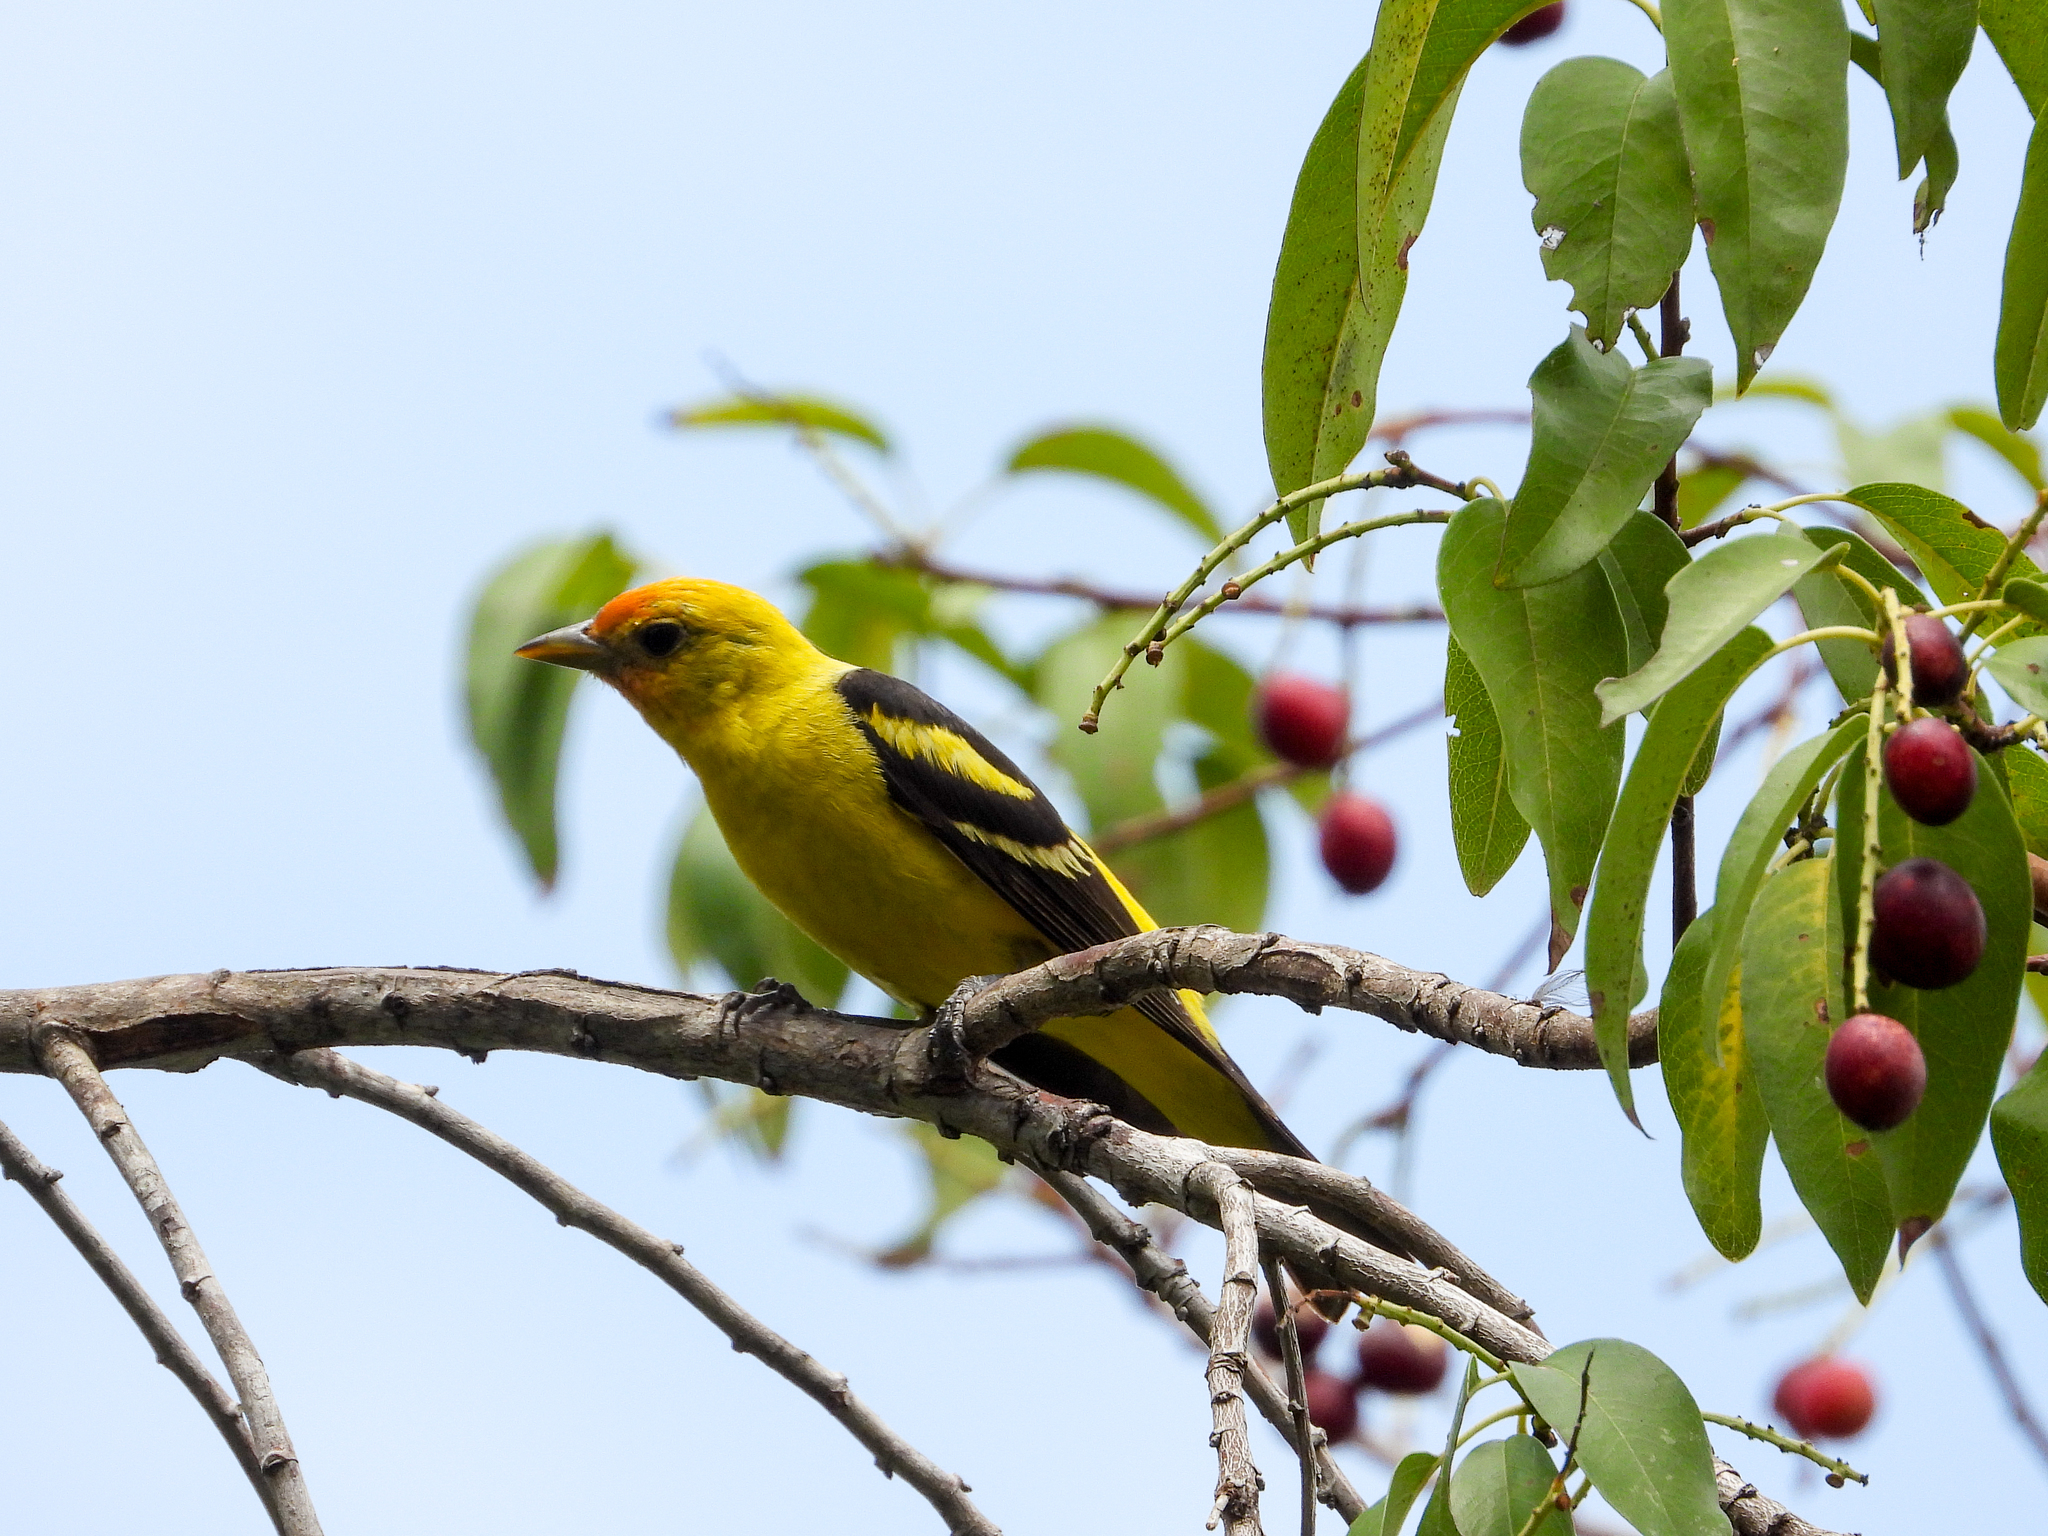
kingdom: Animalia
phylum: Chordata
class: Aves
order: Passeriformes
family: Cardinalidae
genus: Piranga
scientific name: Piranga ludoviciana
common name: Western tanager
